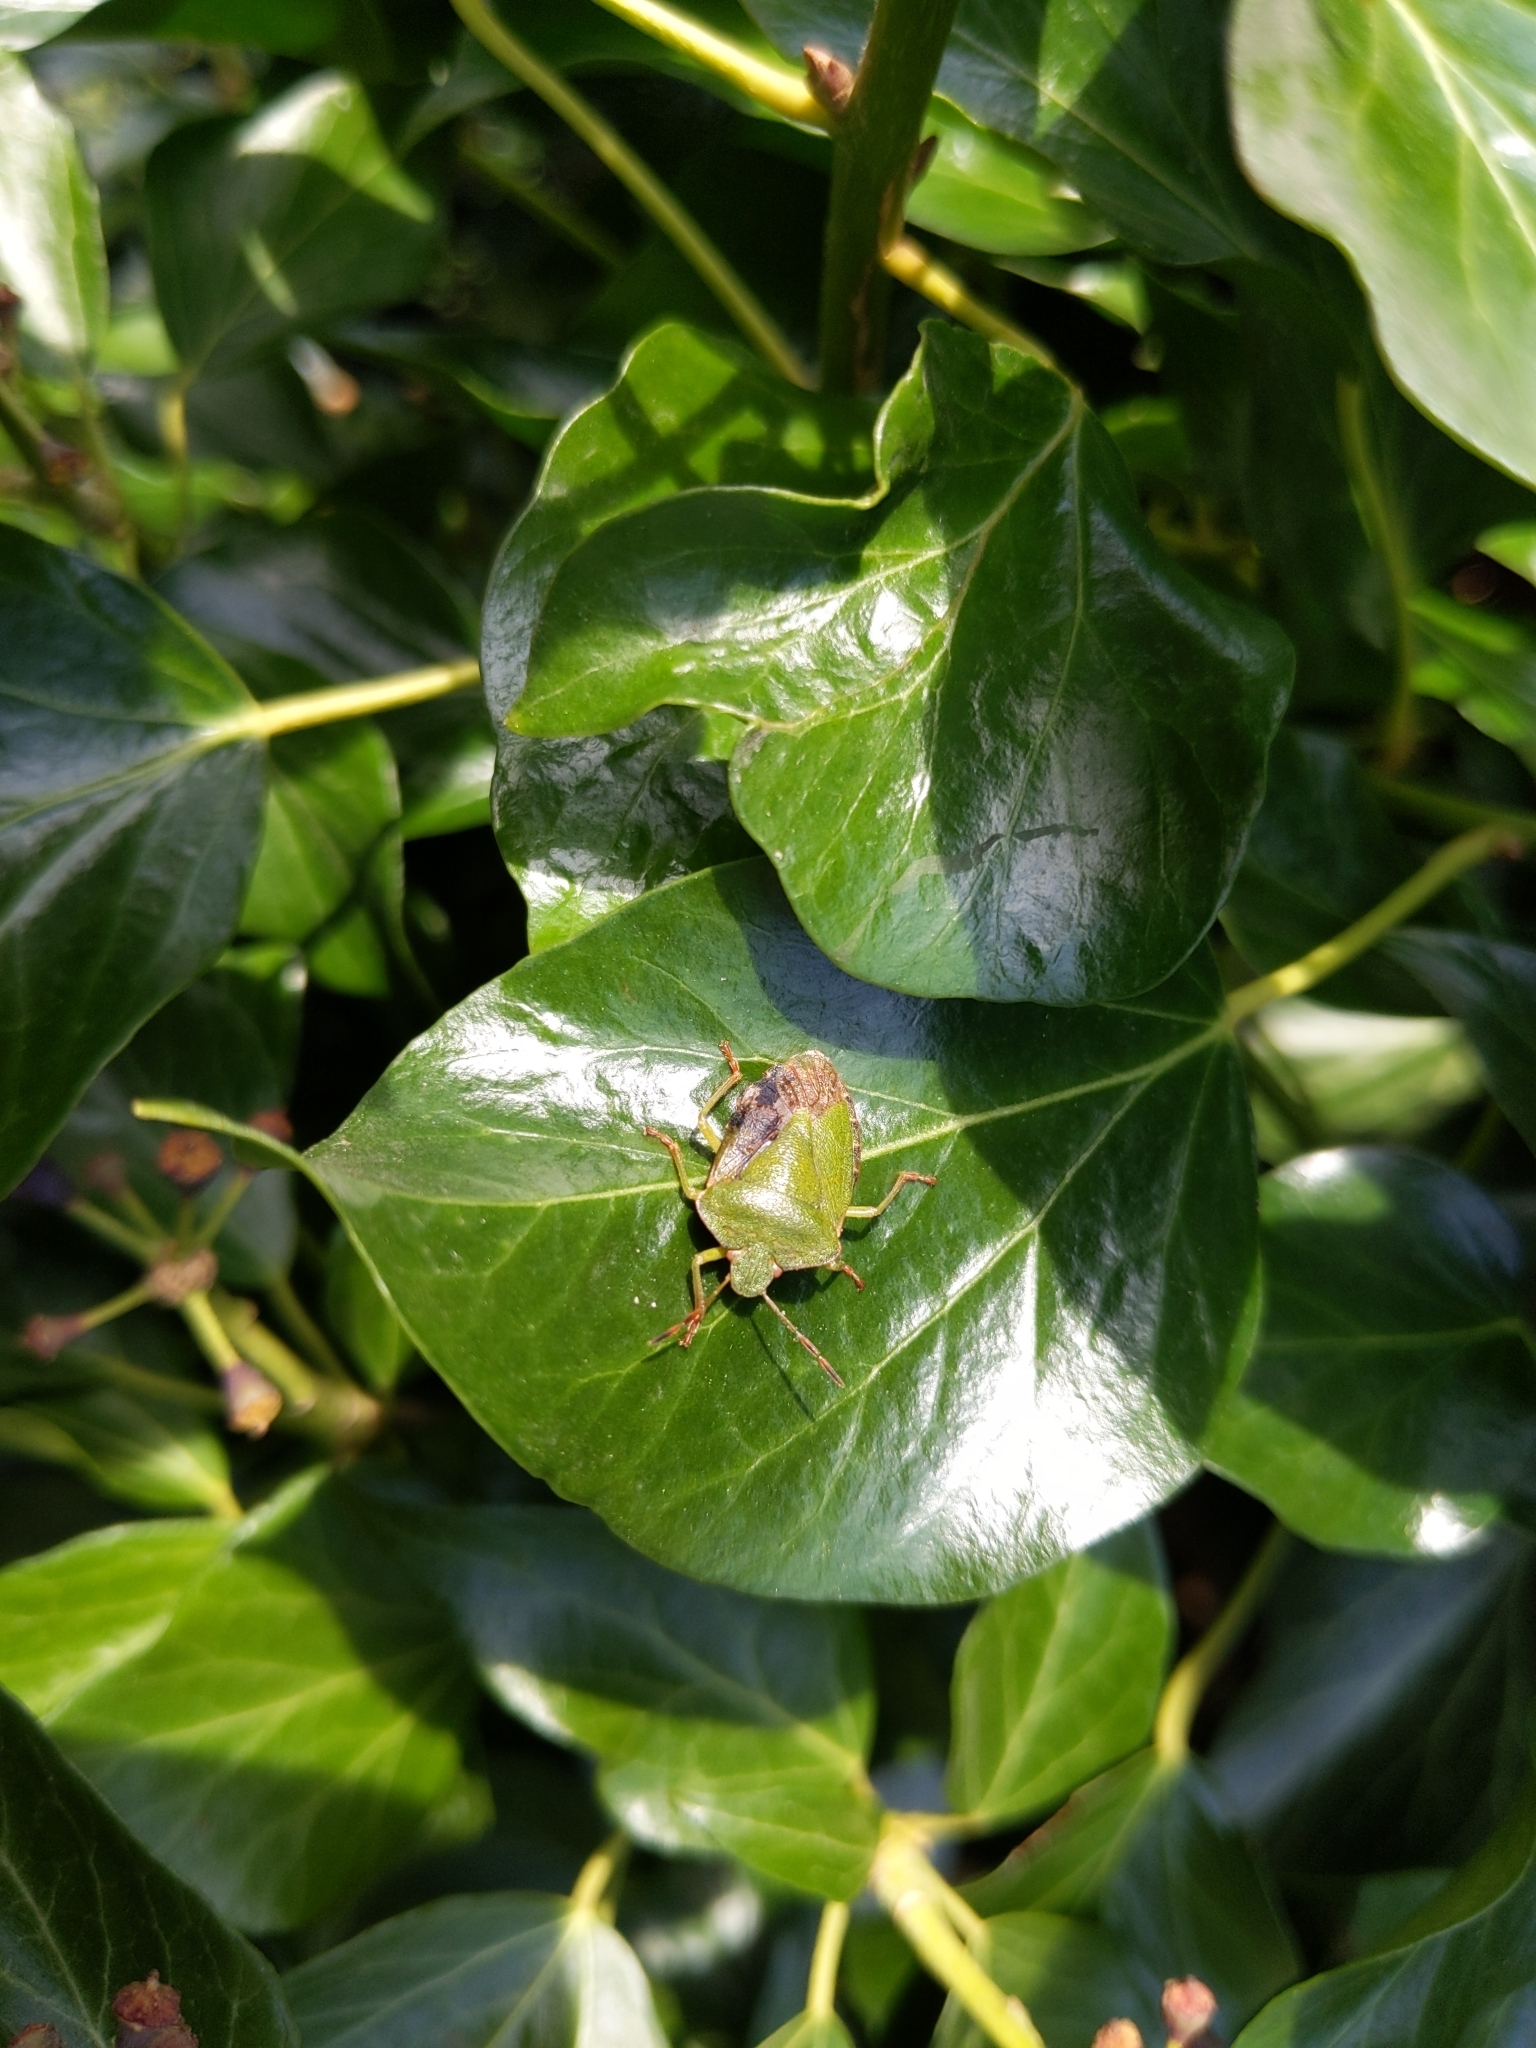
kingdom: Animalia
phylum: Arthropoda
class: Insecta
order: Hemiptera
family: Pentatomidae
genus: Palomena
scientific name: Palomena prasina
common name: Green shieldbug
